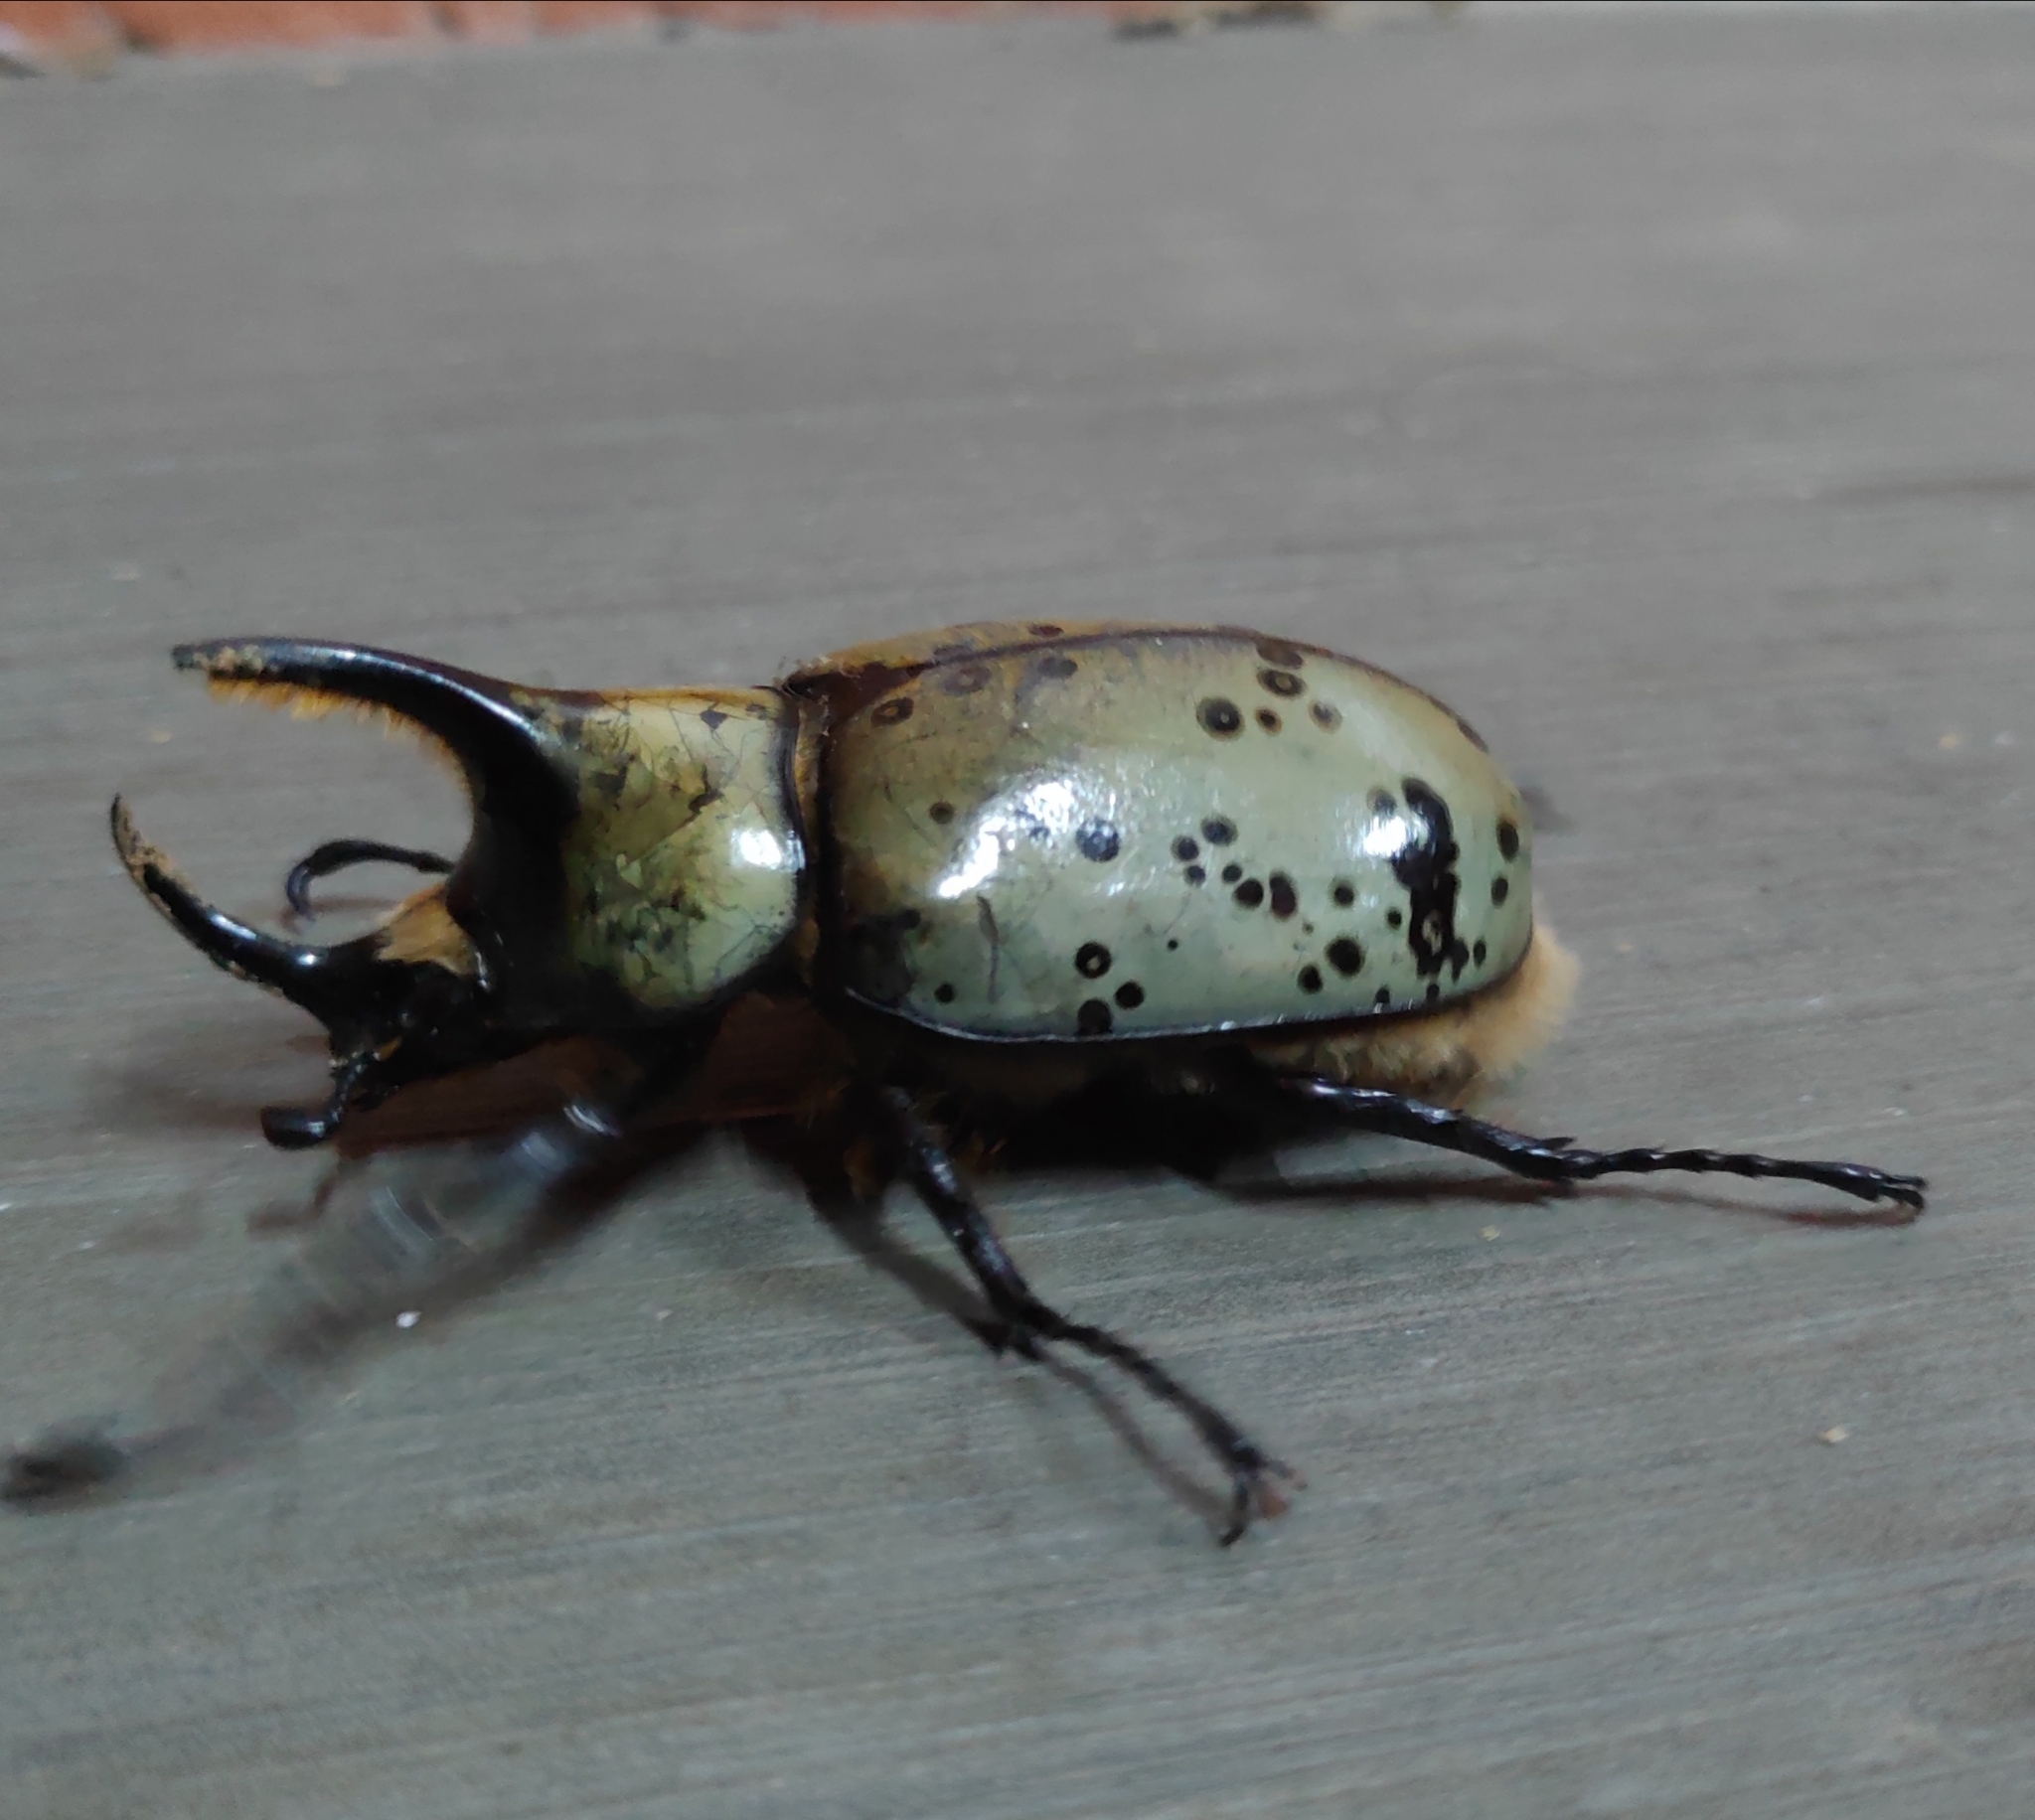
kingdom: Animalia
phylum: Arthropoda
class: Insecta
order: Coleoptera
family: Scarabaeidae
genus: Dynastes
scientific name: Dynastes hyllus
